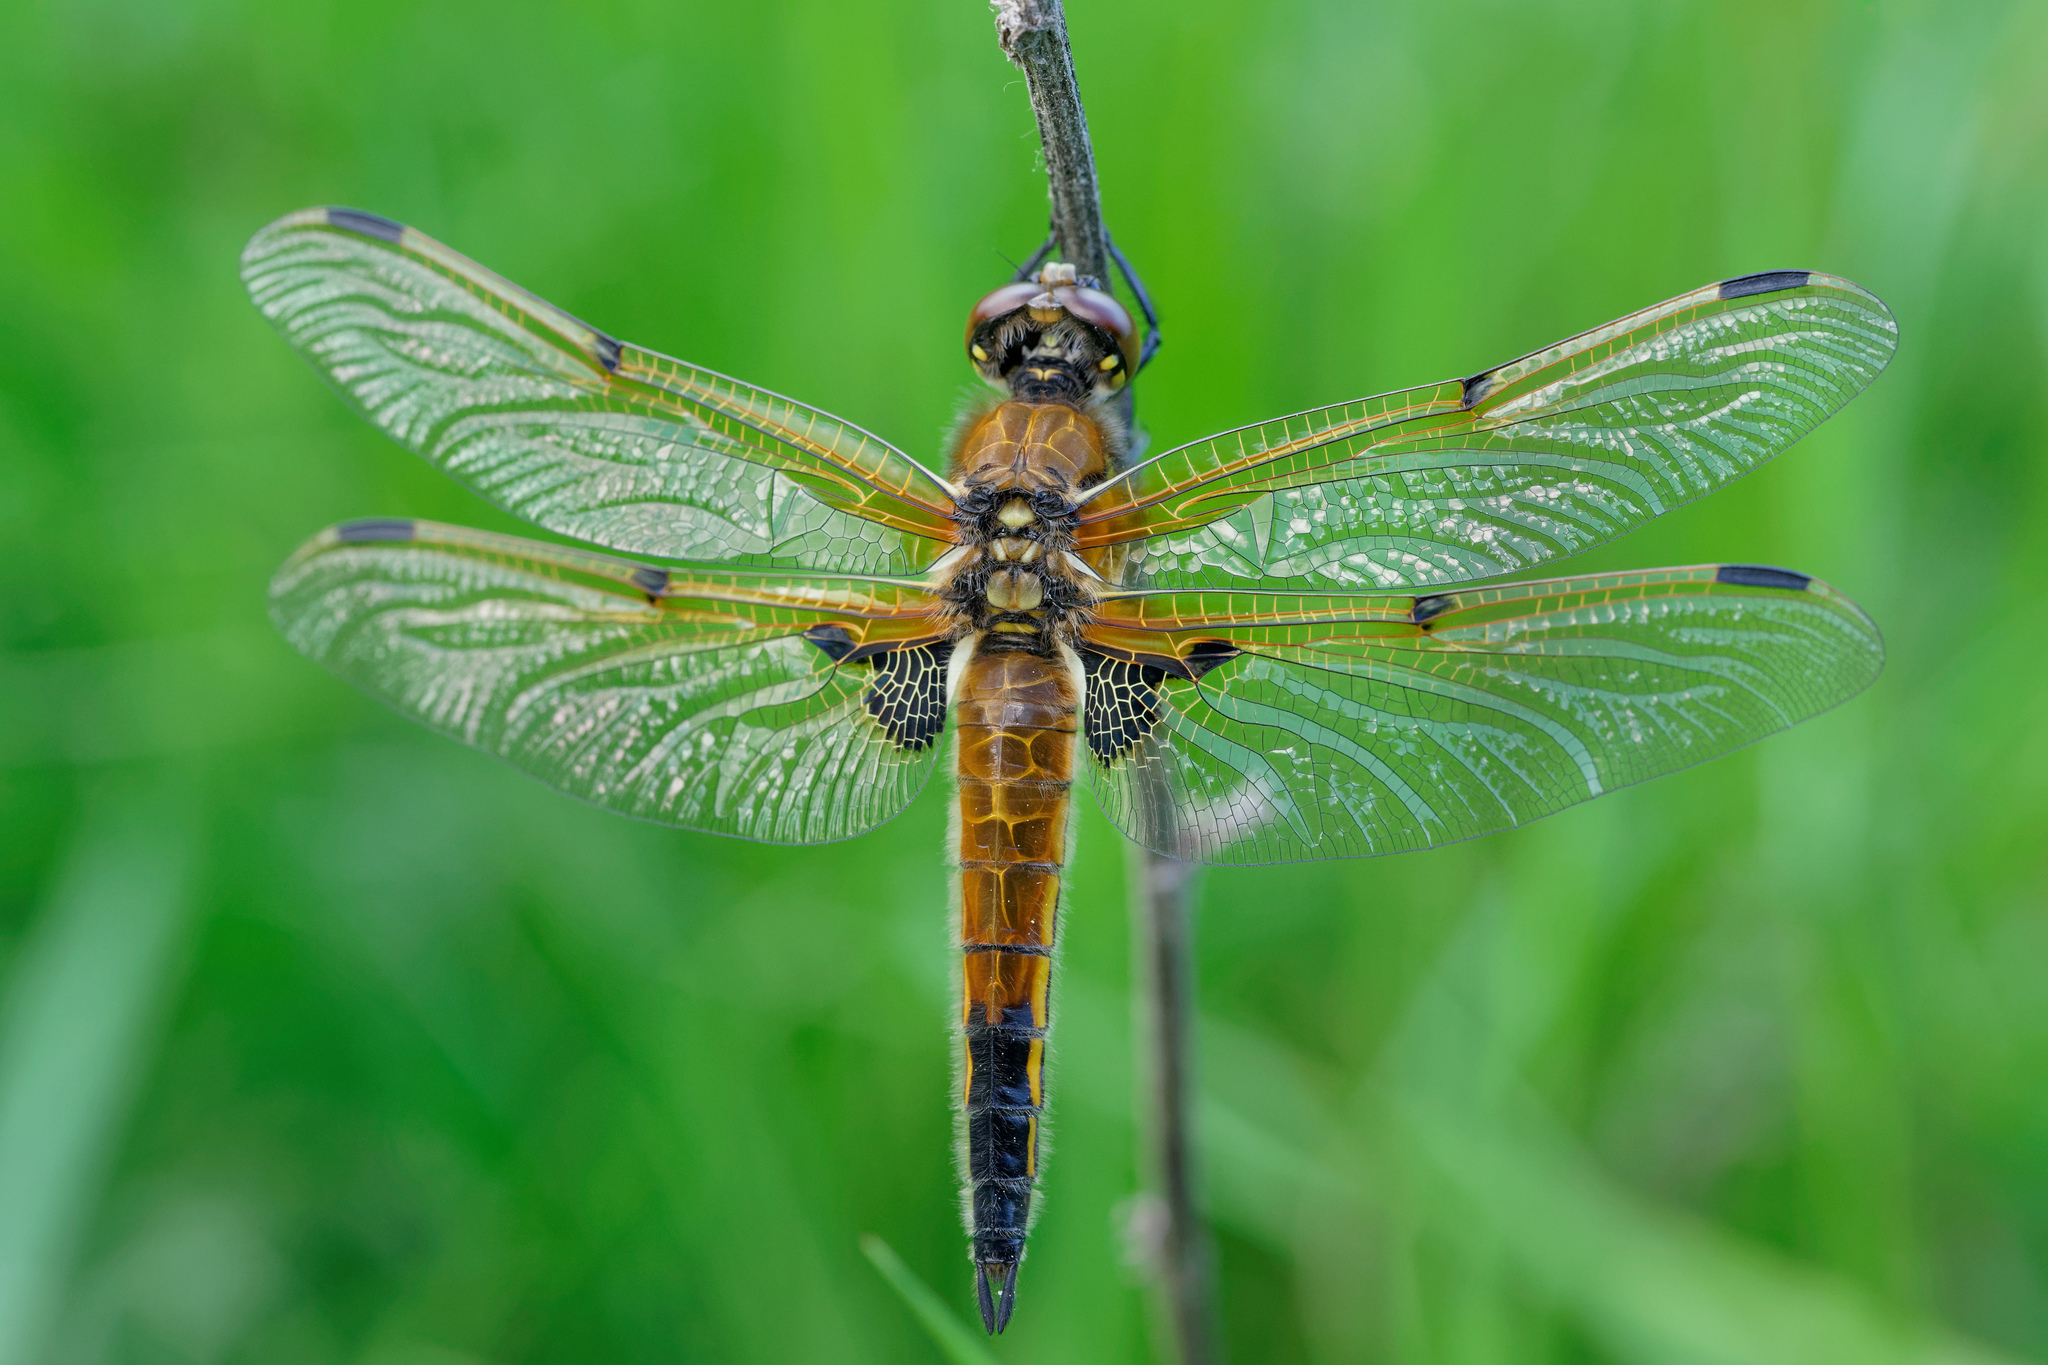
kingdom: Animalia
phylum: Arthropoda
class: Insecta
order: Odonata
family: Libellulidae
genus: Libellula
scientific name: Libellula quadrimaculata
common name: Four-spotted chaser
